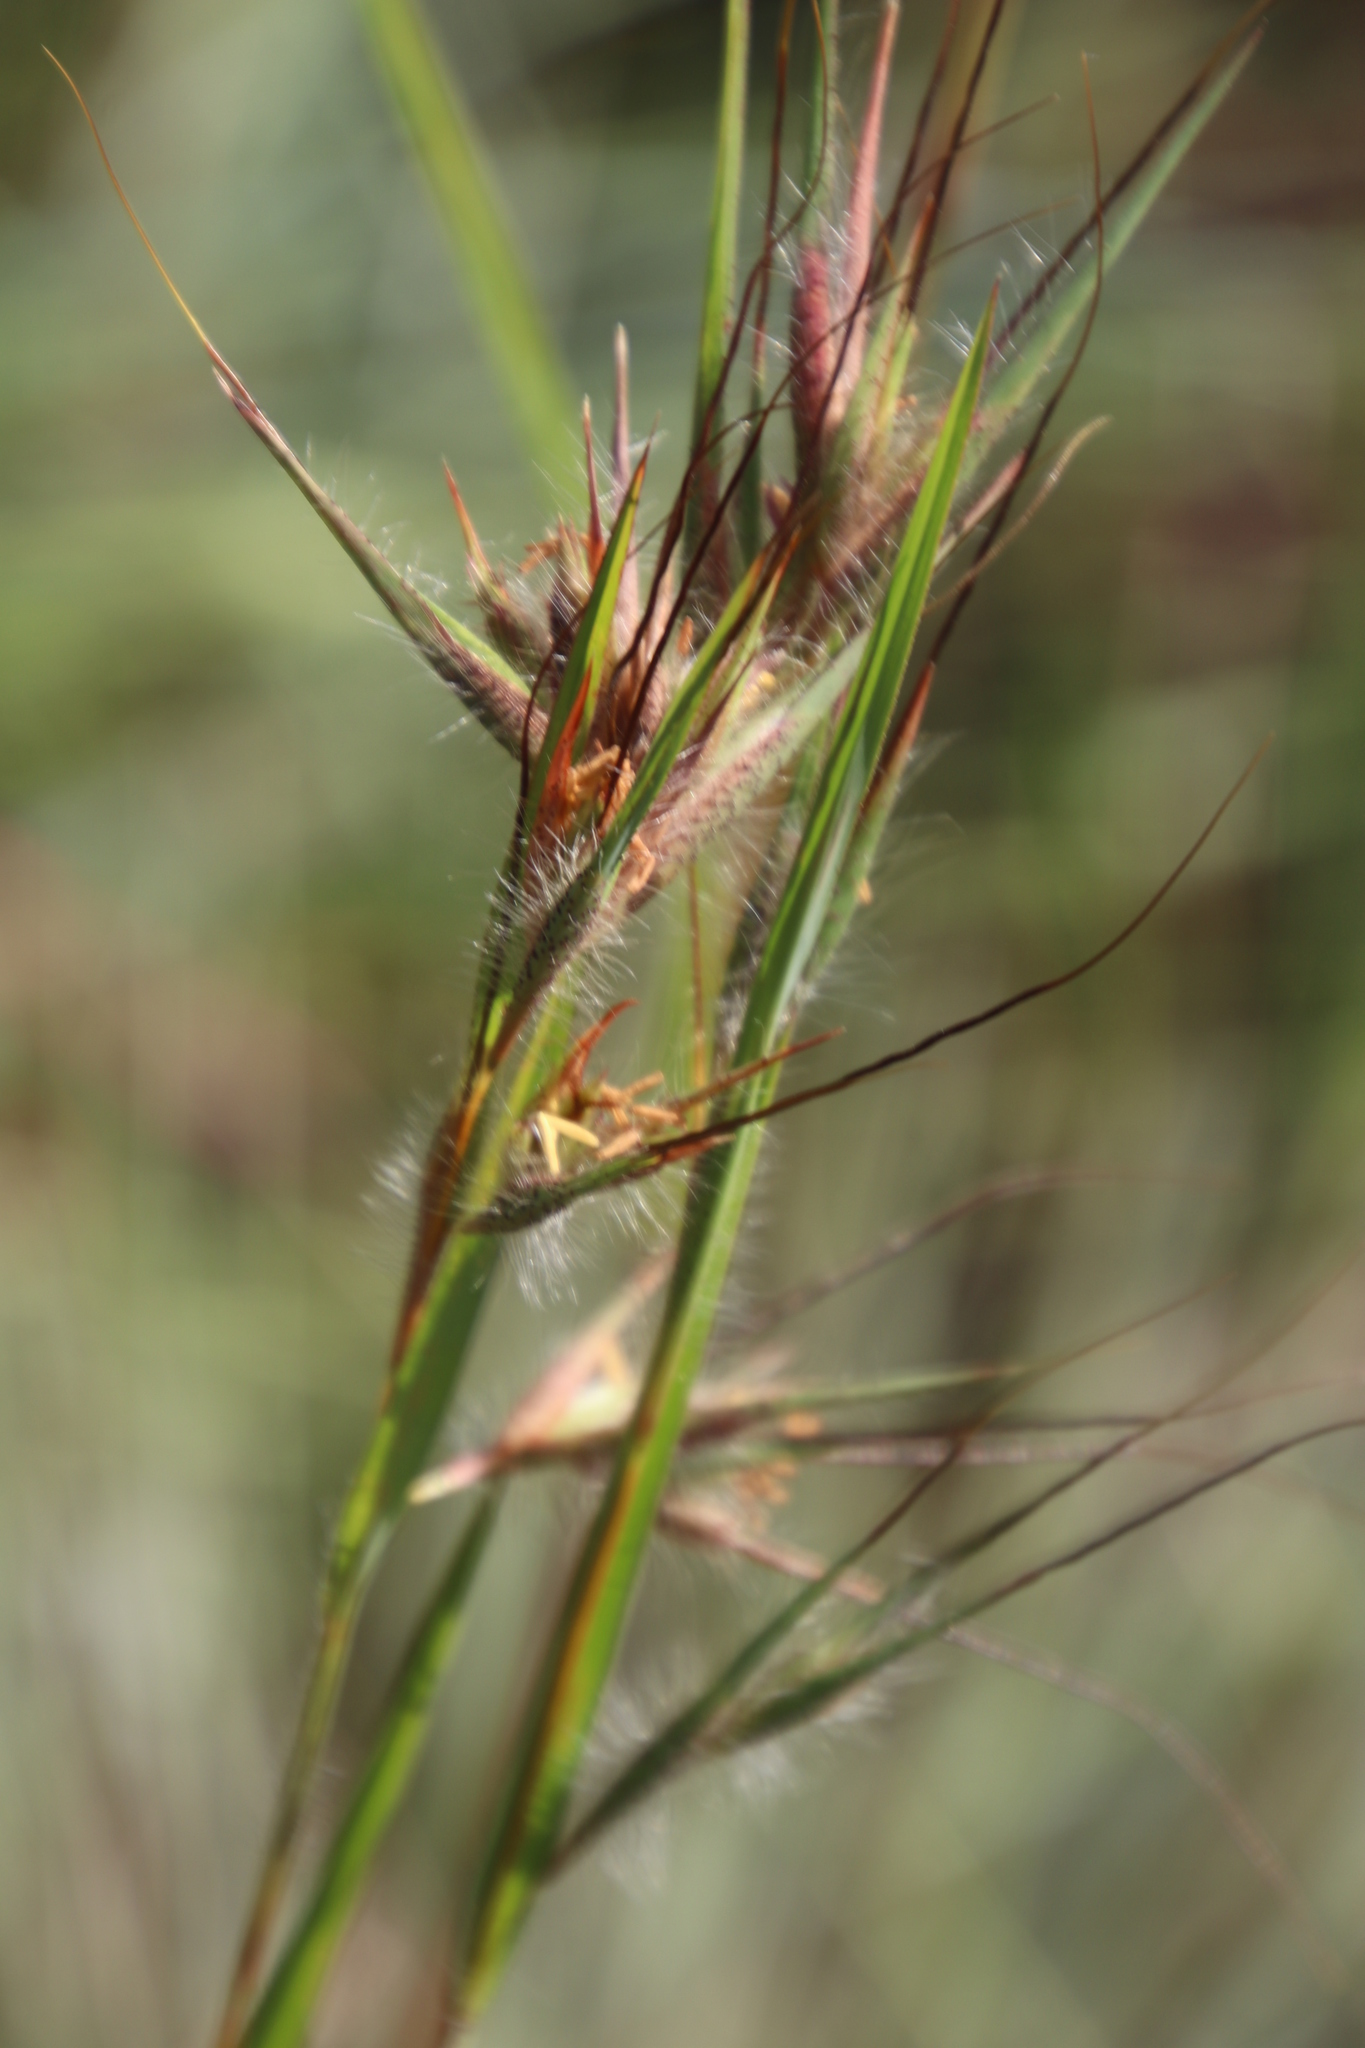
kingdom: Plantae
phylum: Tracheophyta
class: Liliopsida
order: Poales
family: Poaceae
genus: Themeda
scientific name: Themeda triandra
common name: Kangaroo grass
